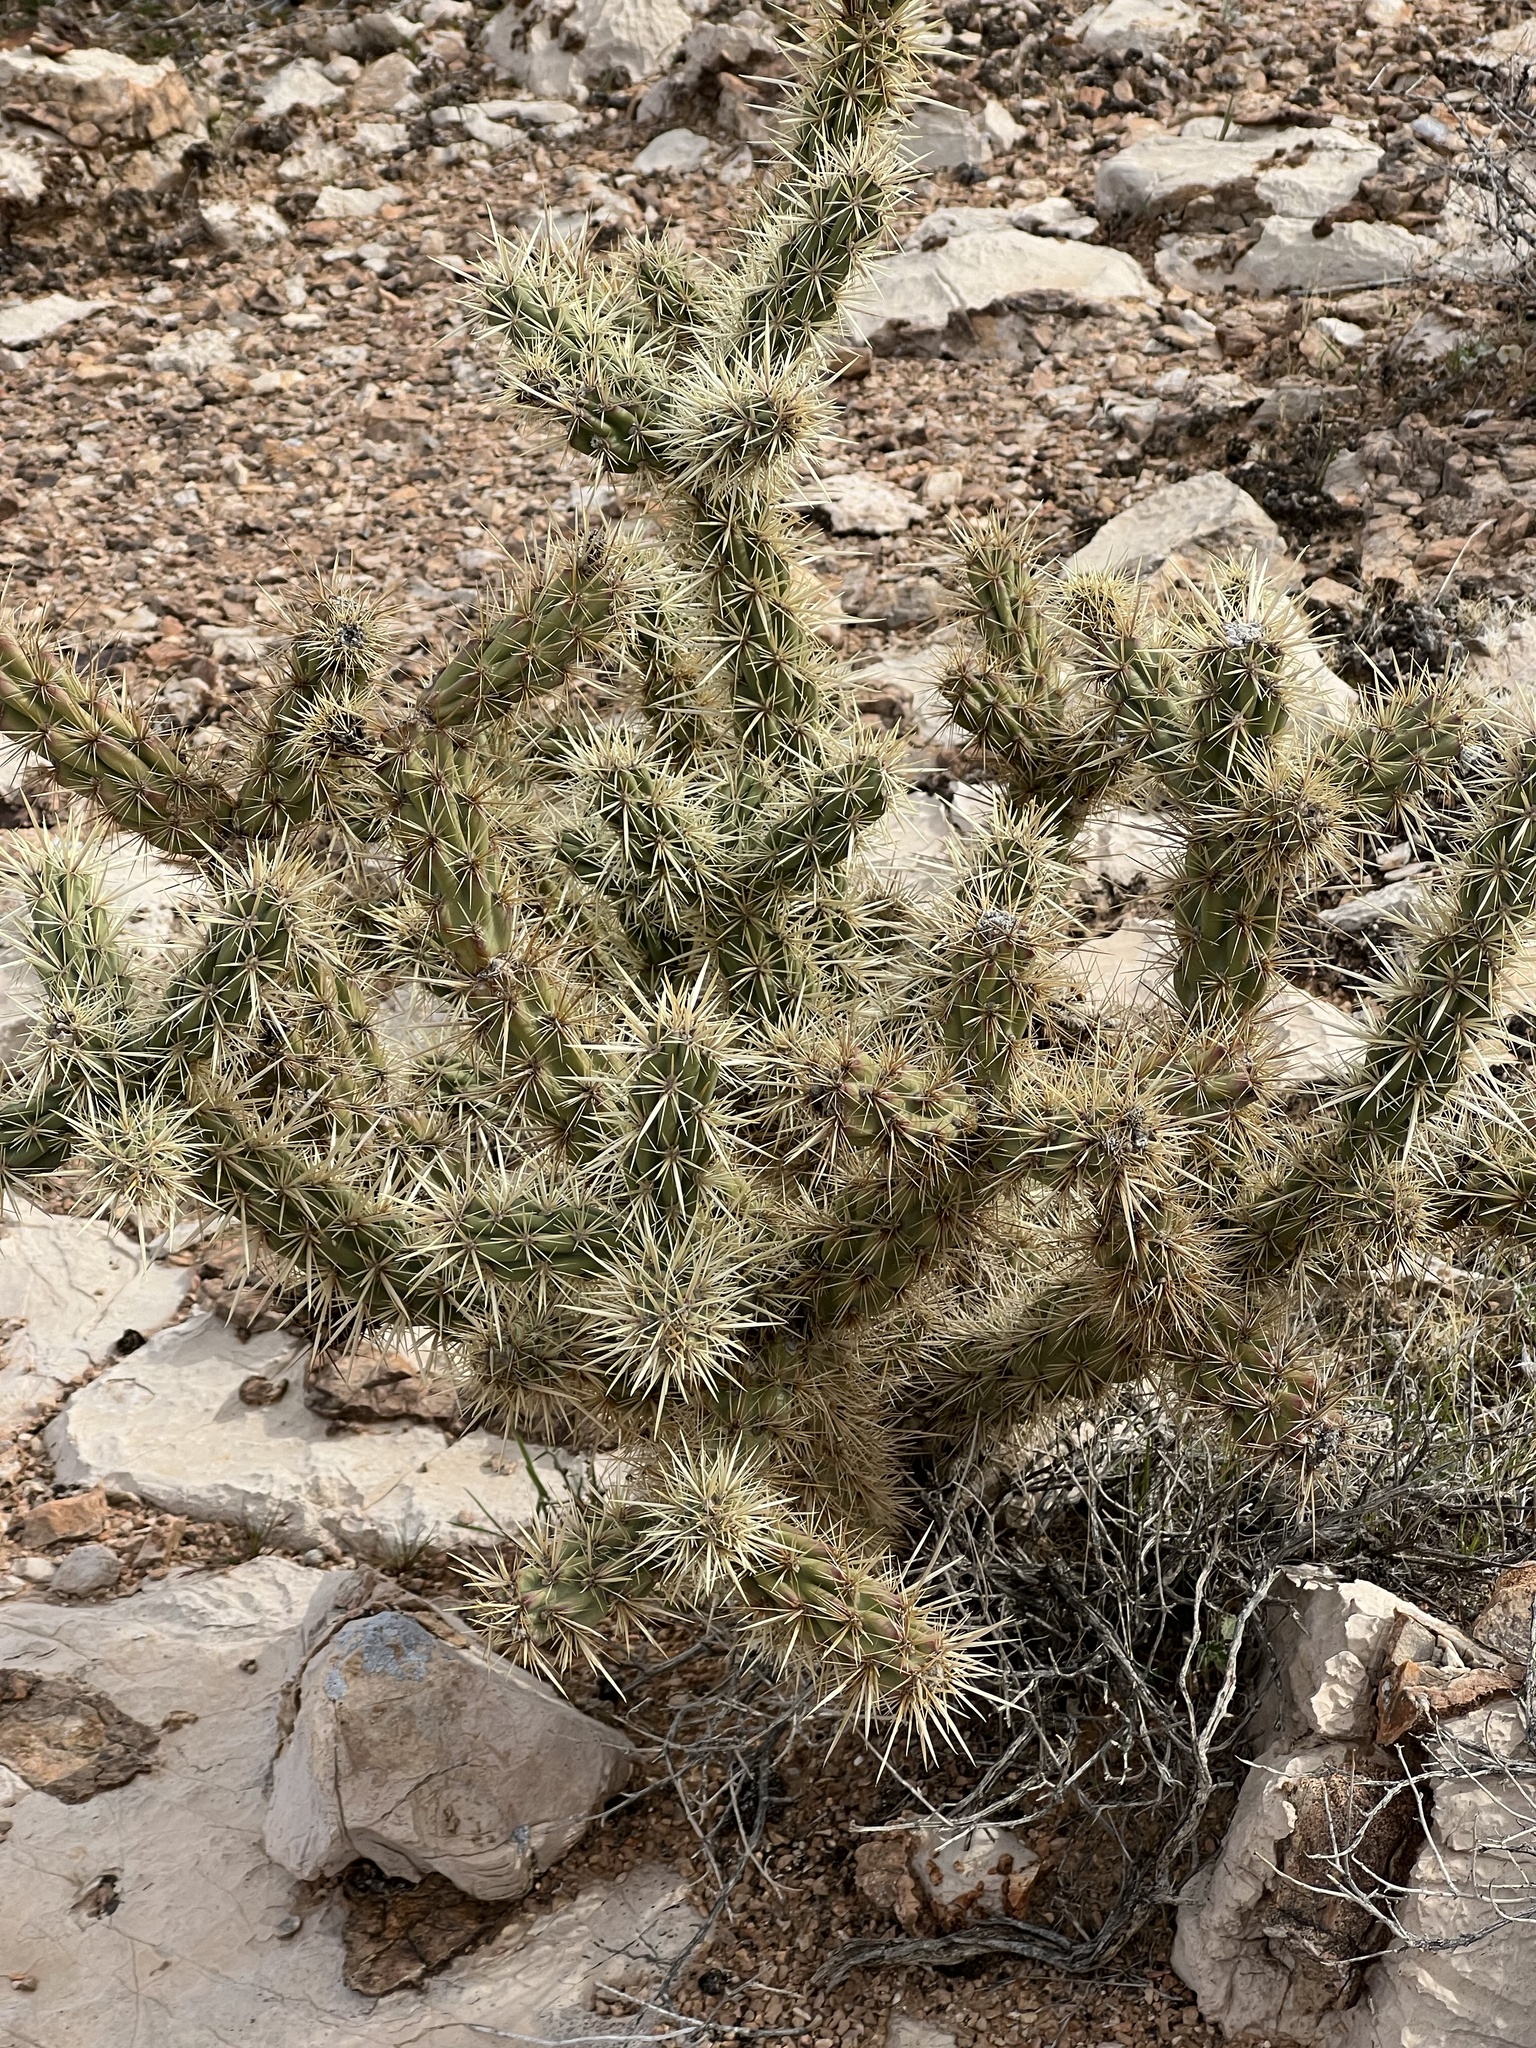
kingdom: Plantae
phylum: Tracheophyta
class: Magnoliopsida
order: Caryophyllales
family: Cactaceae
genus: Cylindropuntia
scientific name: Cylindropuntia acanthocarpa
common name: Buckhorn cholla
